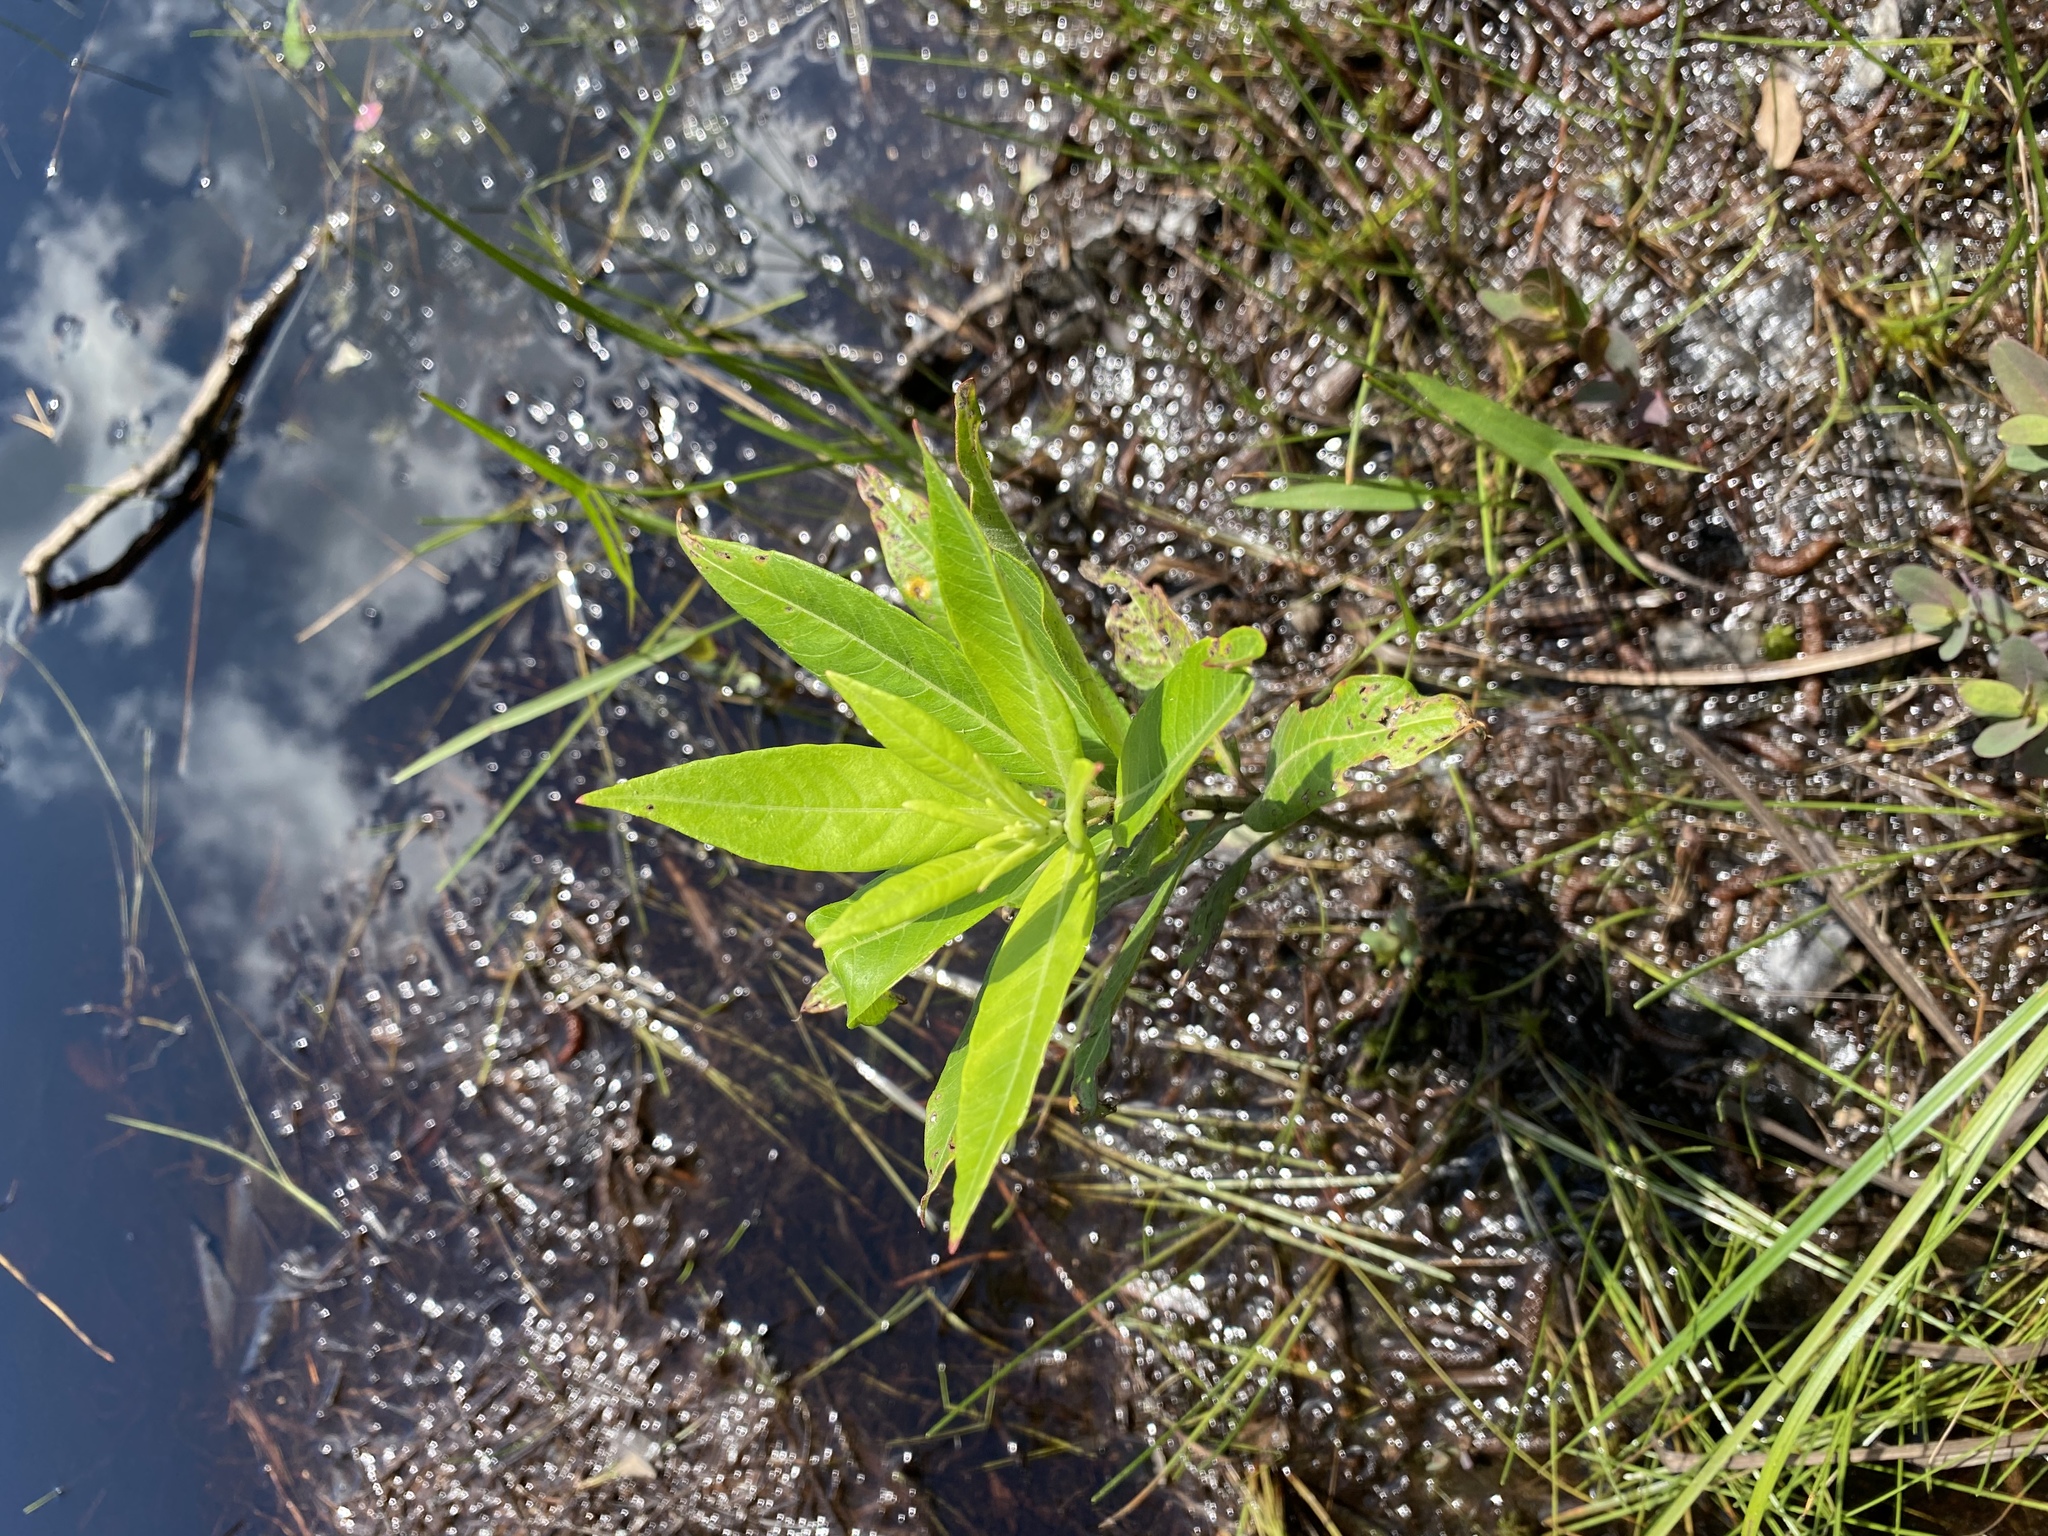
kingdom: Plantae
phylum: Tracheophyta
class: Magnoliopsida
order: Myrtales
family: Lythraceae
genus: Decodon
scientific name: Decodon verticillatus
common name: Hairy swamp loosestrife
